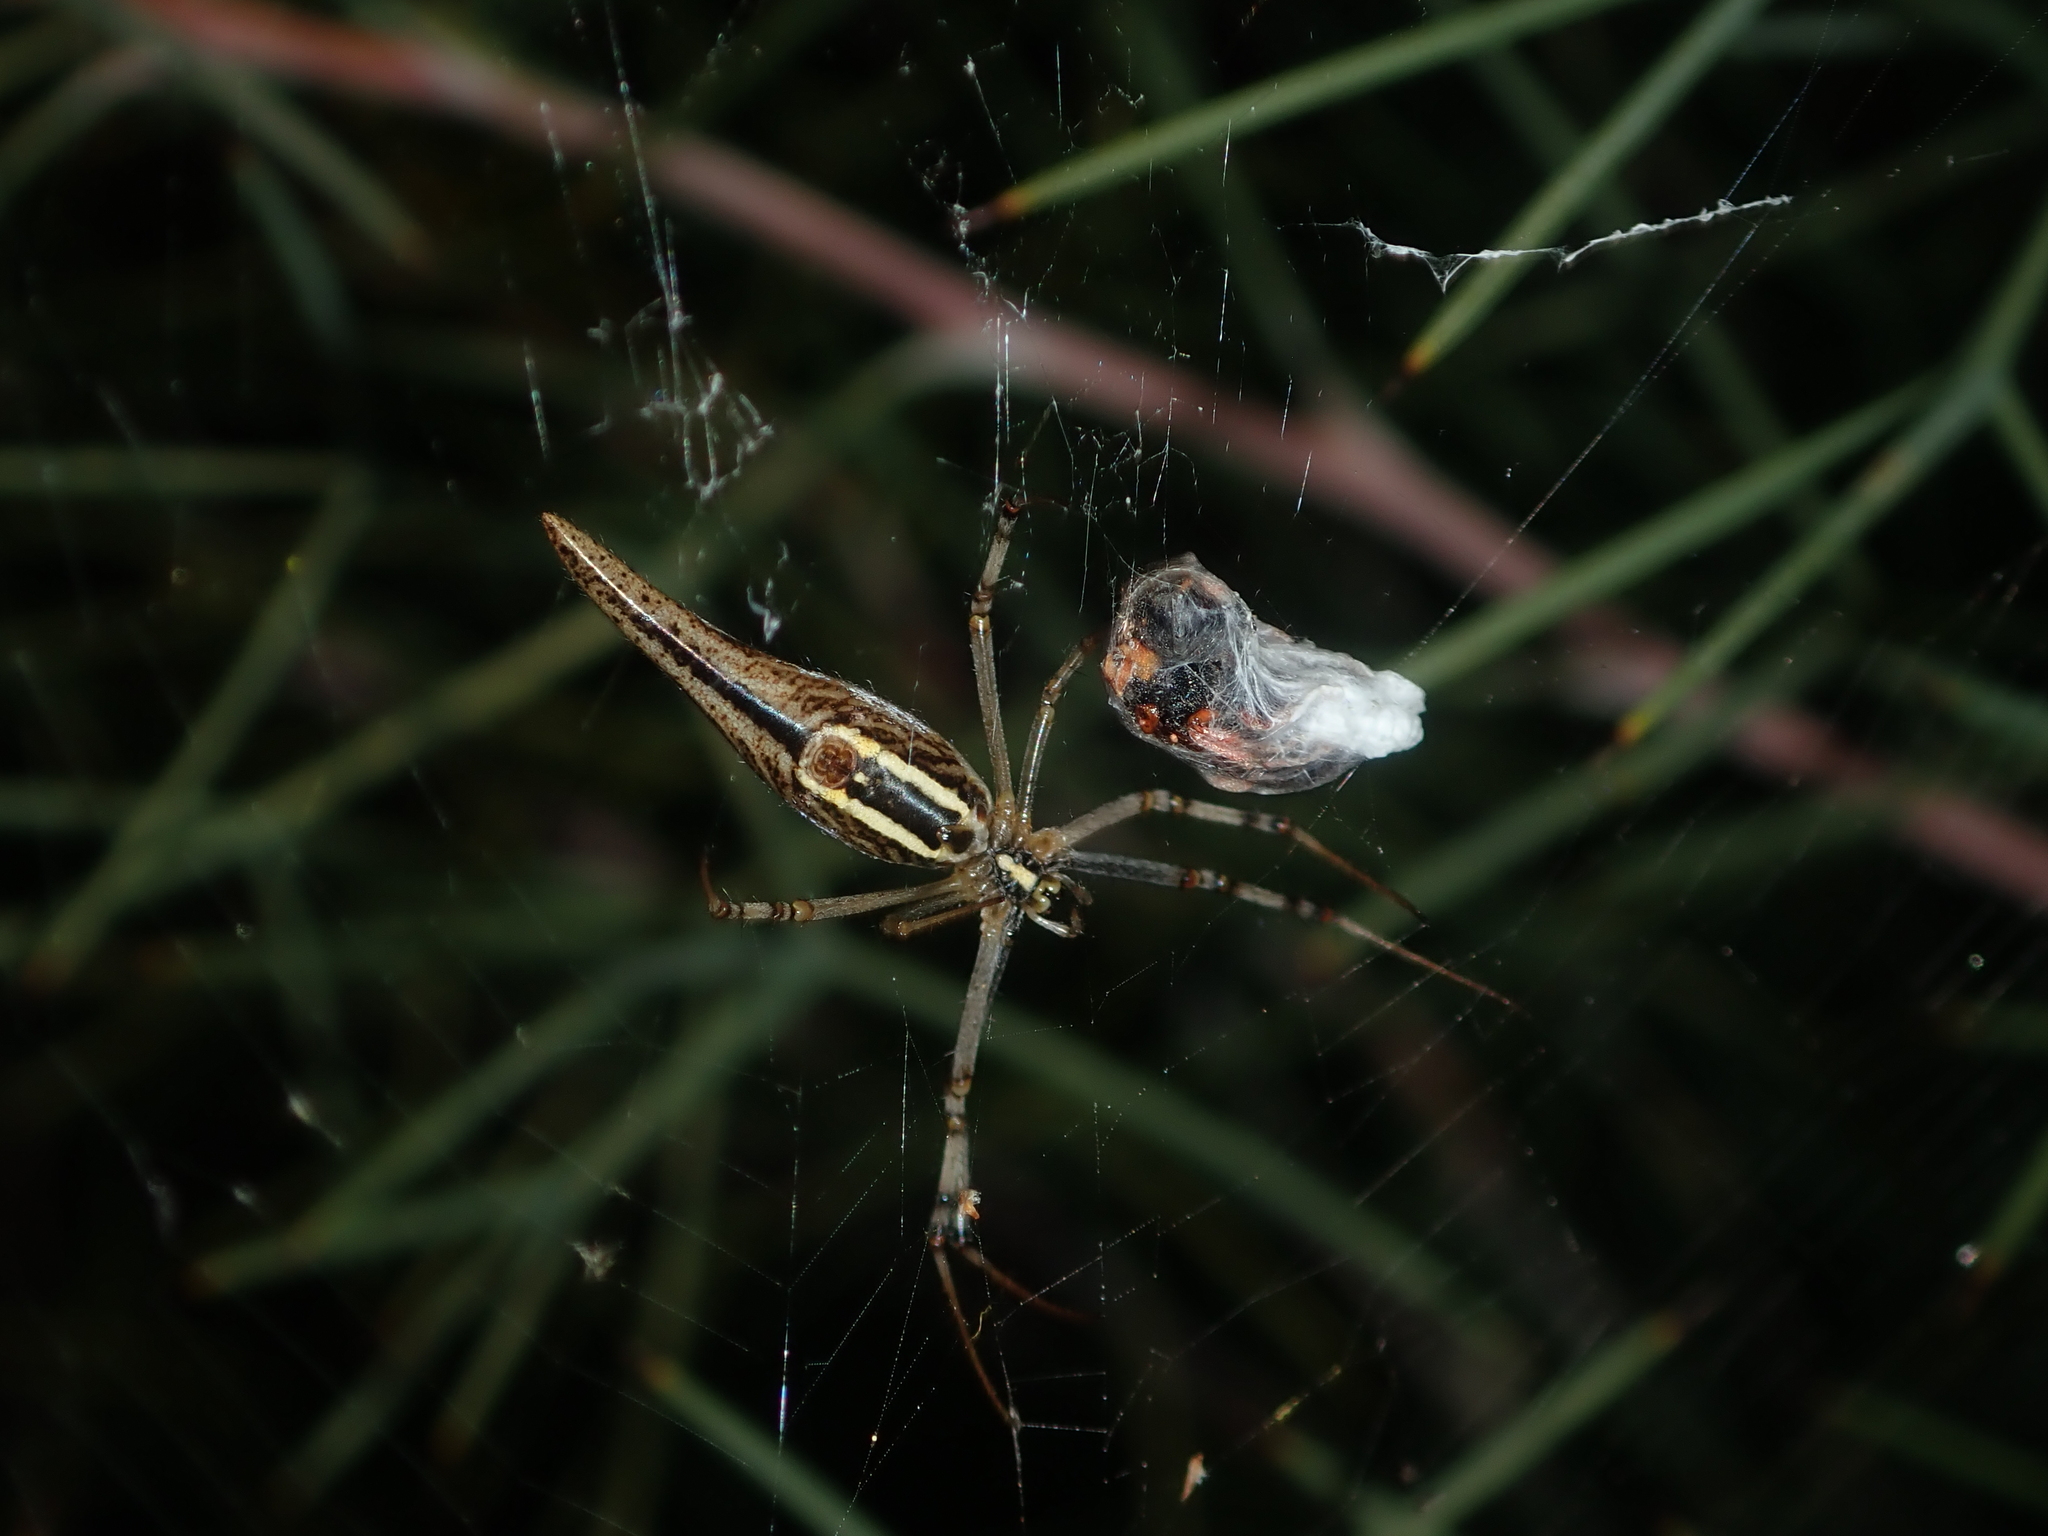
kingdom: Animalia
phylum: Arthropoda
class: Arachnida
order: Araneae
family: Araneidae
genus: Argiope
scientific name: Argiope protensa
